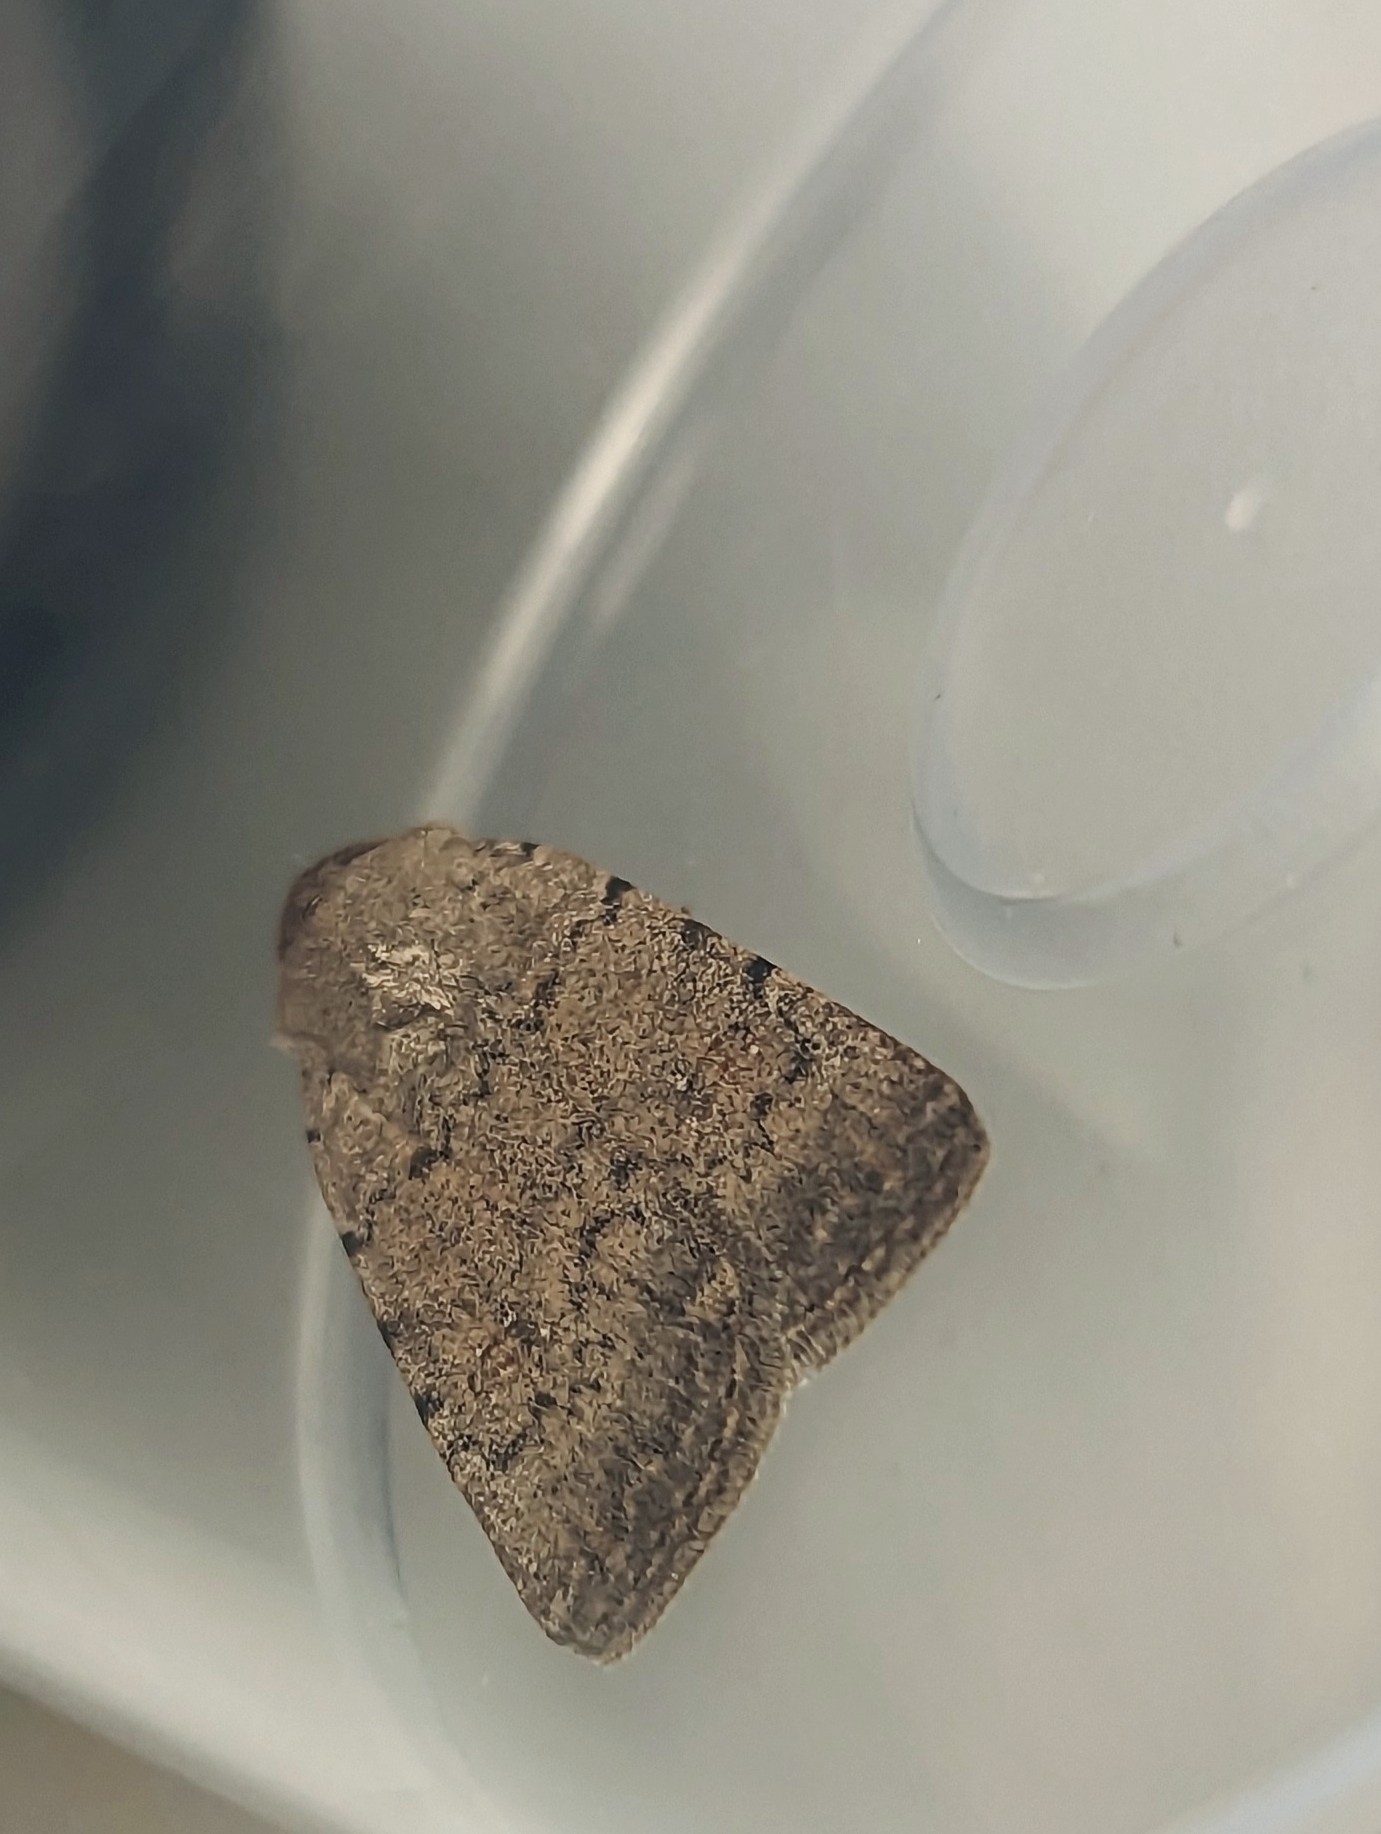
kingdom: Animalia
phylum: Arthropoda
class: Insecta
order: Lepidoptera
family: Noctuidae
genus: Caradrina
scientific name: Caradrina clavipalpis
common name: Pale mottled willow
